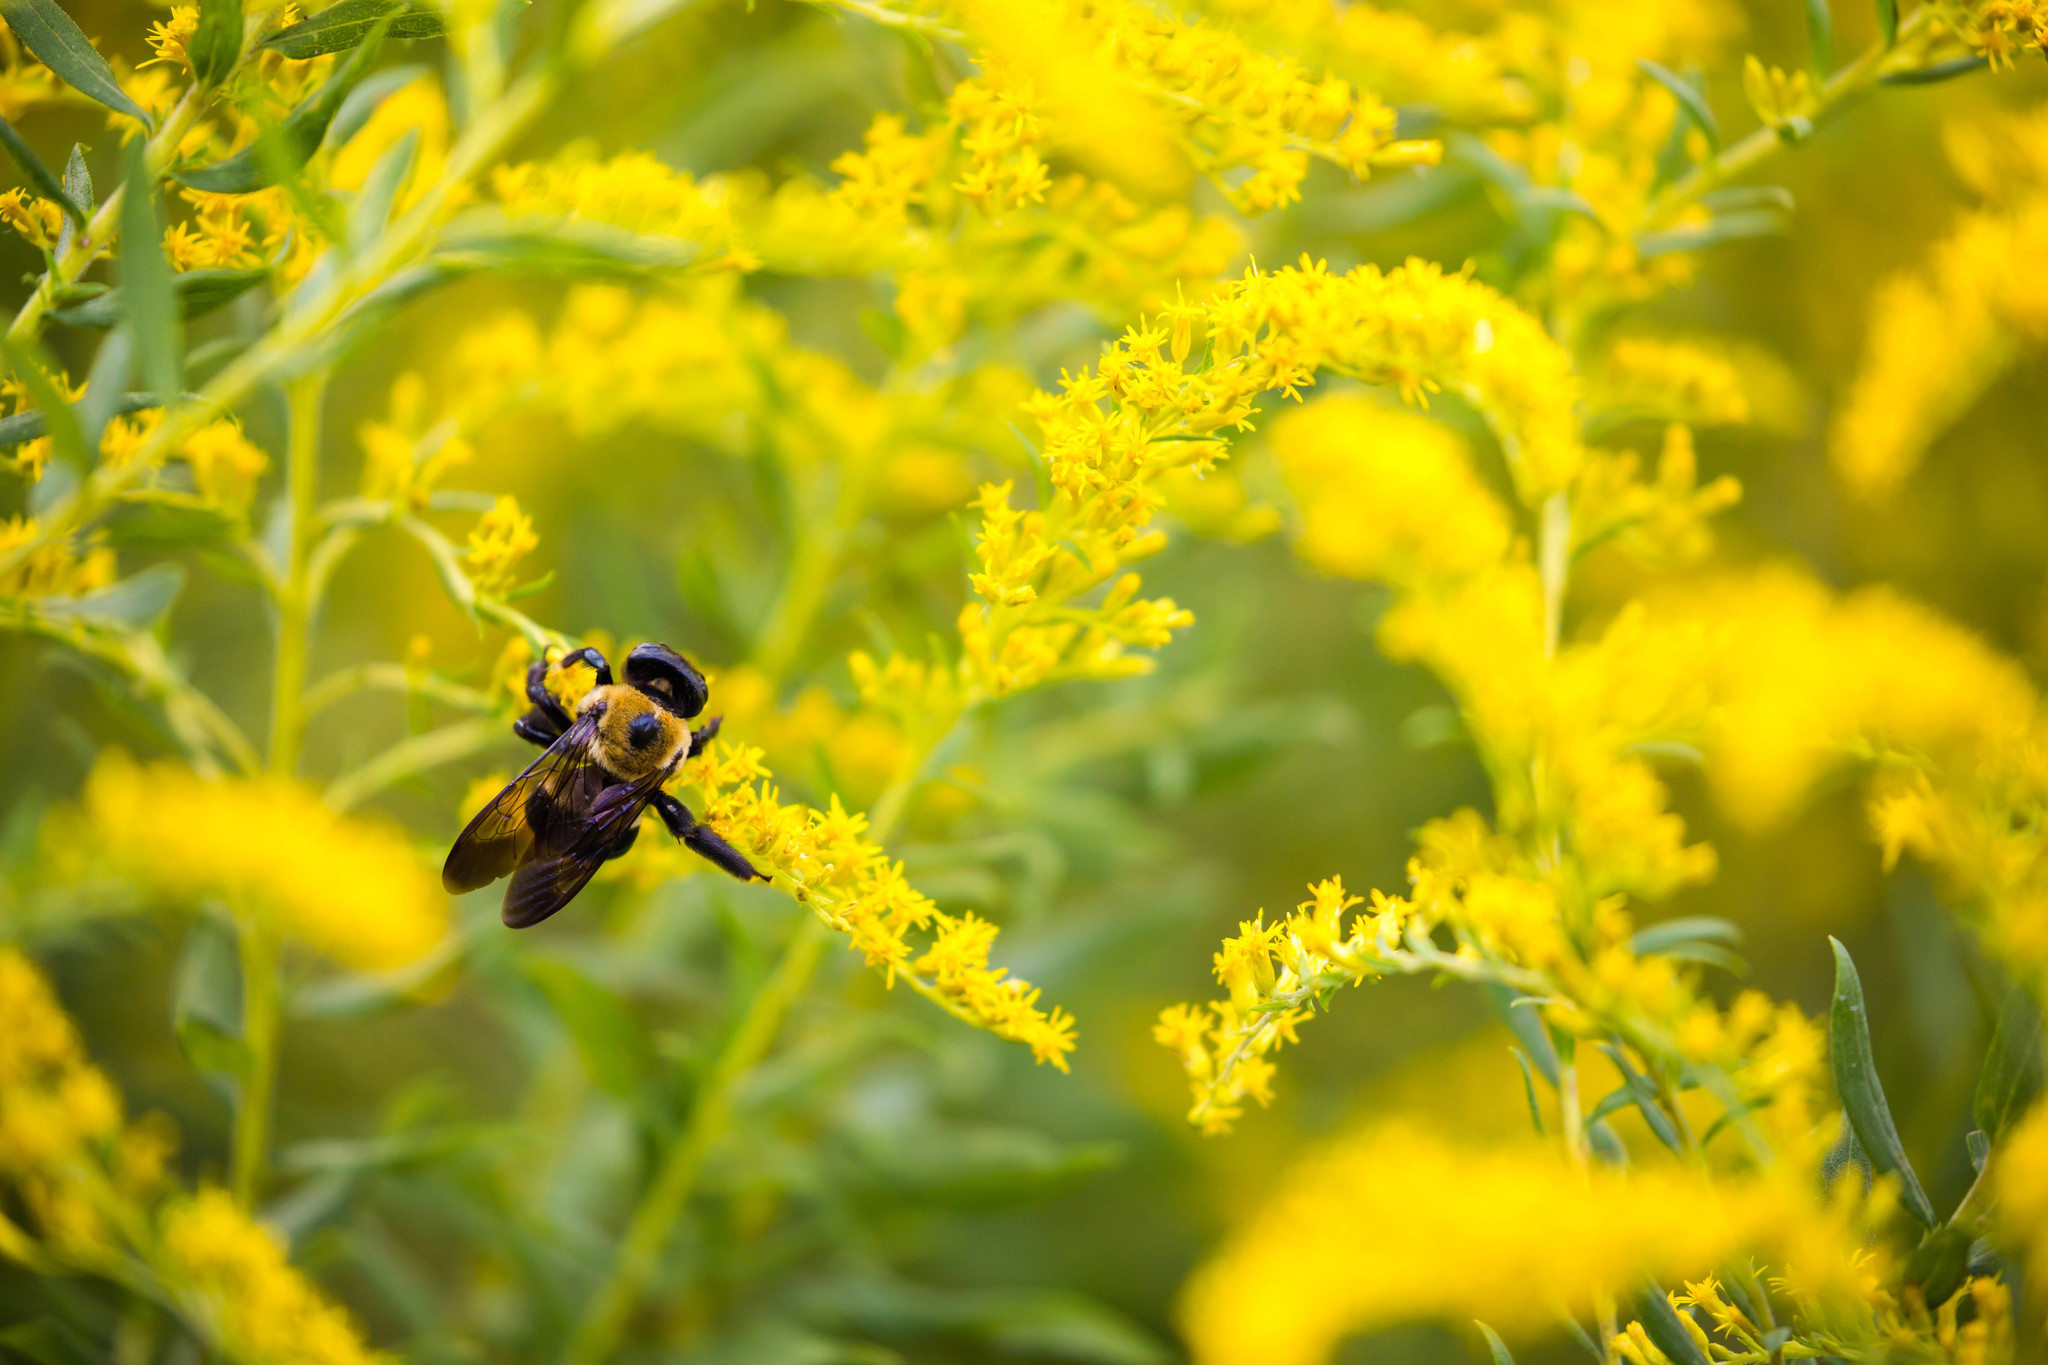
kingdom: Animalia
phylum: Arthropoda
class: Insecta
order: Hymenoptera
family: Apidae
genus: Xylocopa
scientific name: Xylocopa virginica
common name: Carpenter bee
